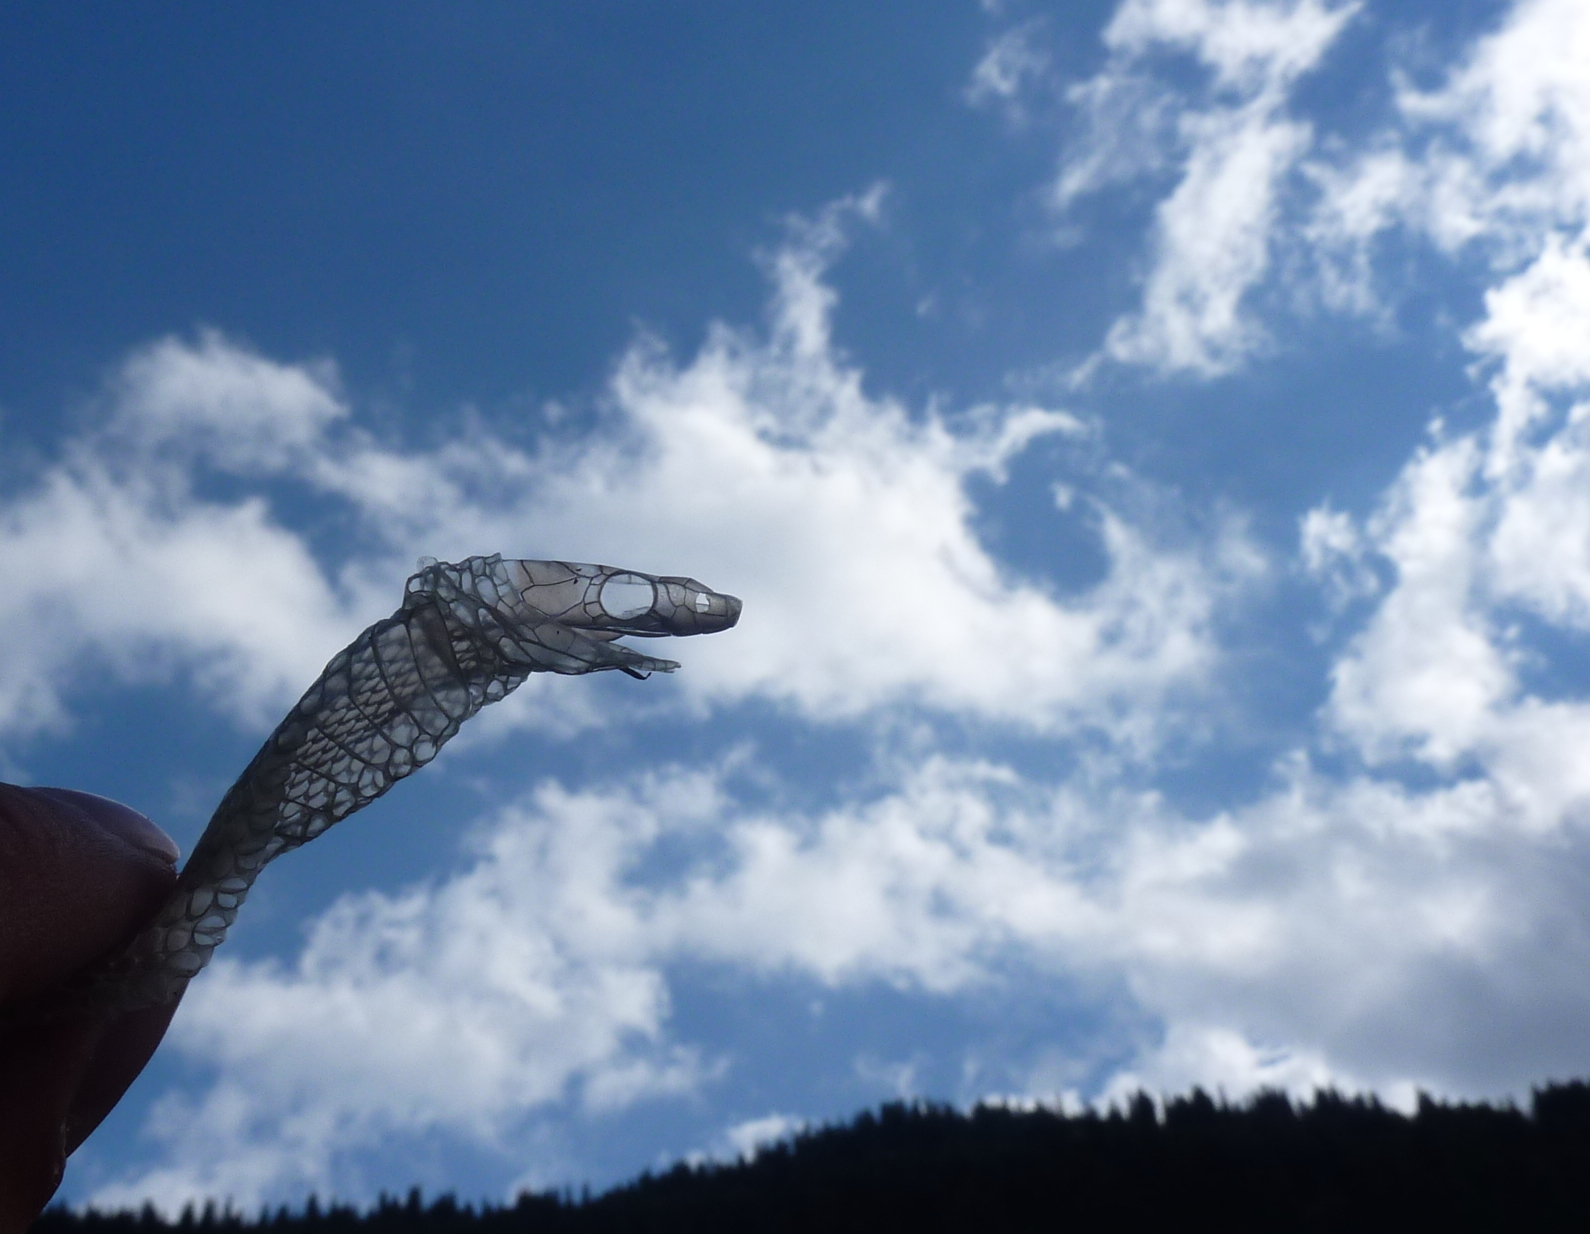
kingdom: Animalia
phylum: Chordata
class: Squamata
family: Colubridae
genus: Natrix
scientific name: Natrix natrix
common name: Grass snake
